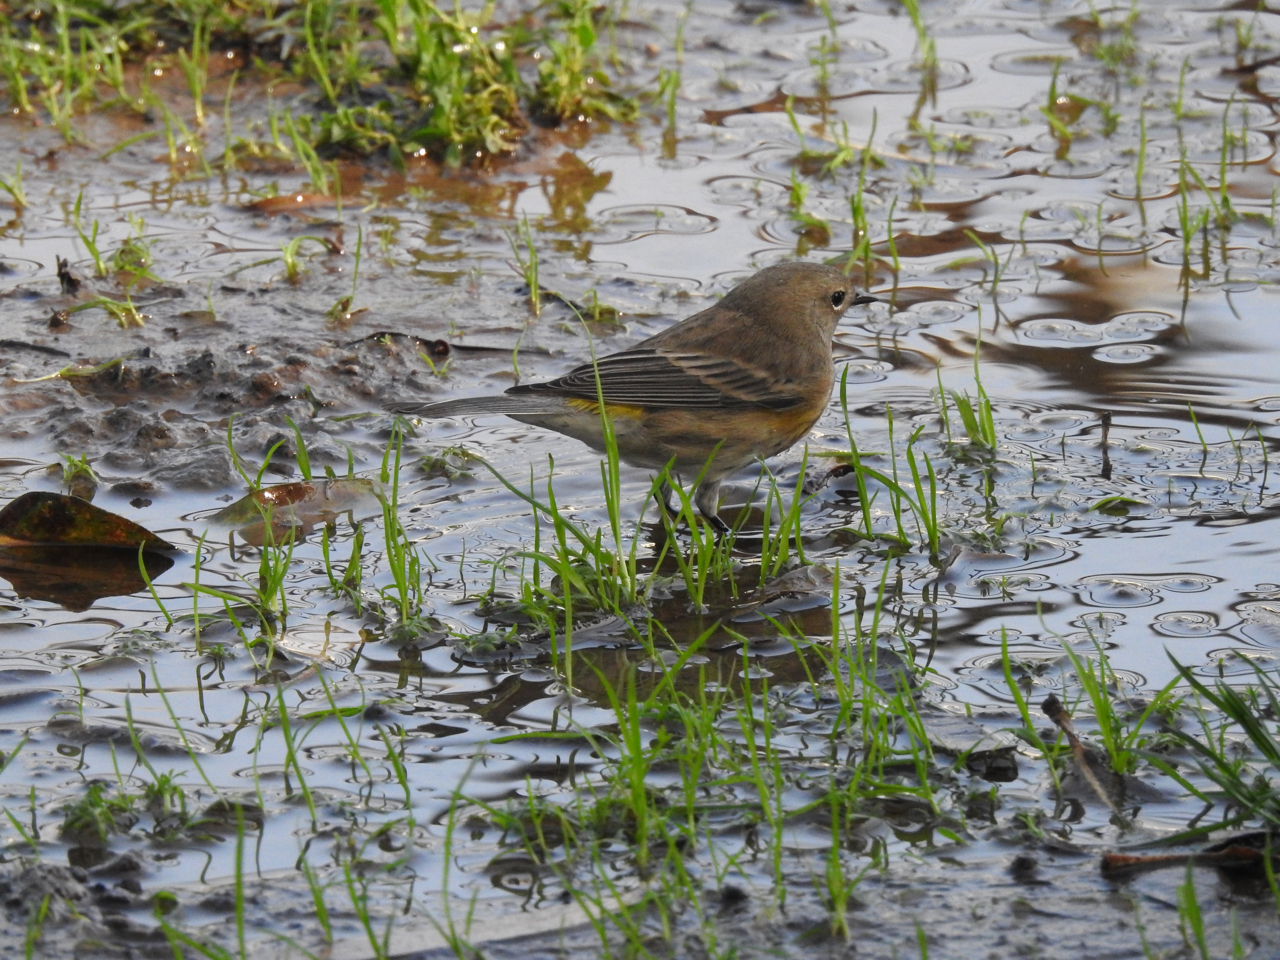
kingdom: Animalia
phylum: Chordata
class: Aves
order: Passeriformes
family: Parulidae
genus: Setophaga
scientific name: Setophaga coronata
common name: Myrtle warbler
